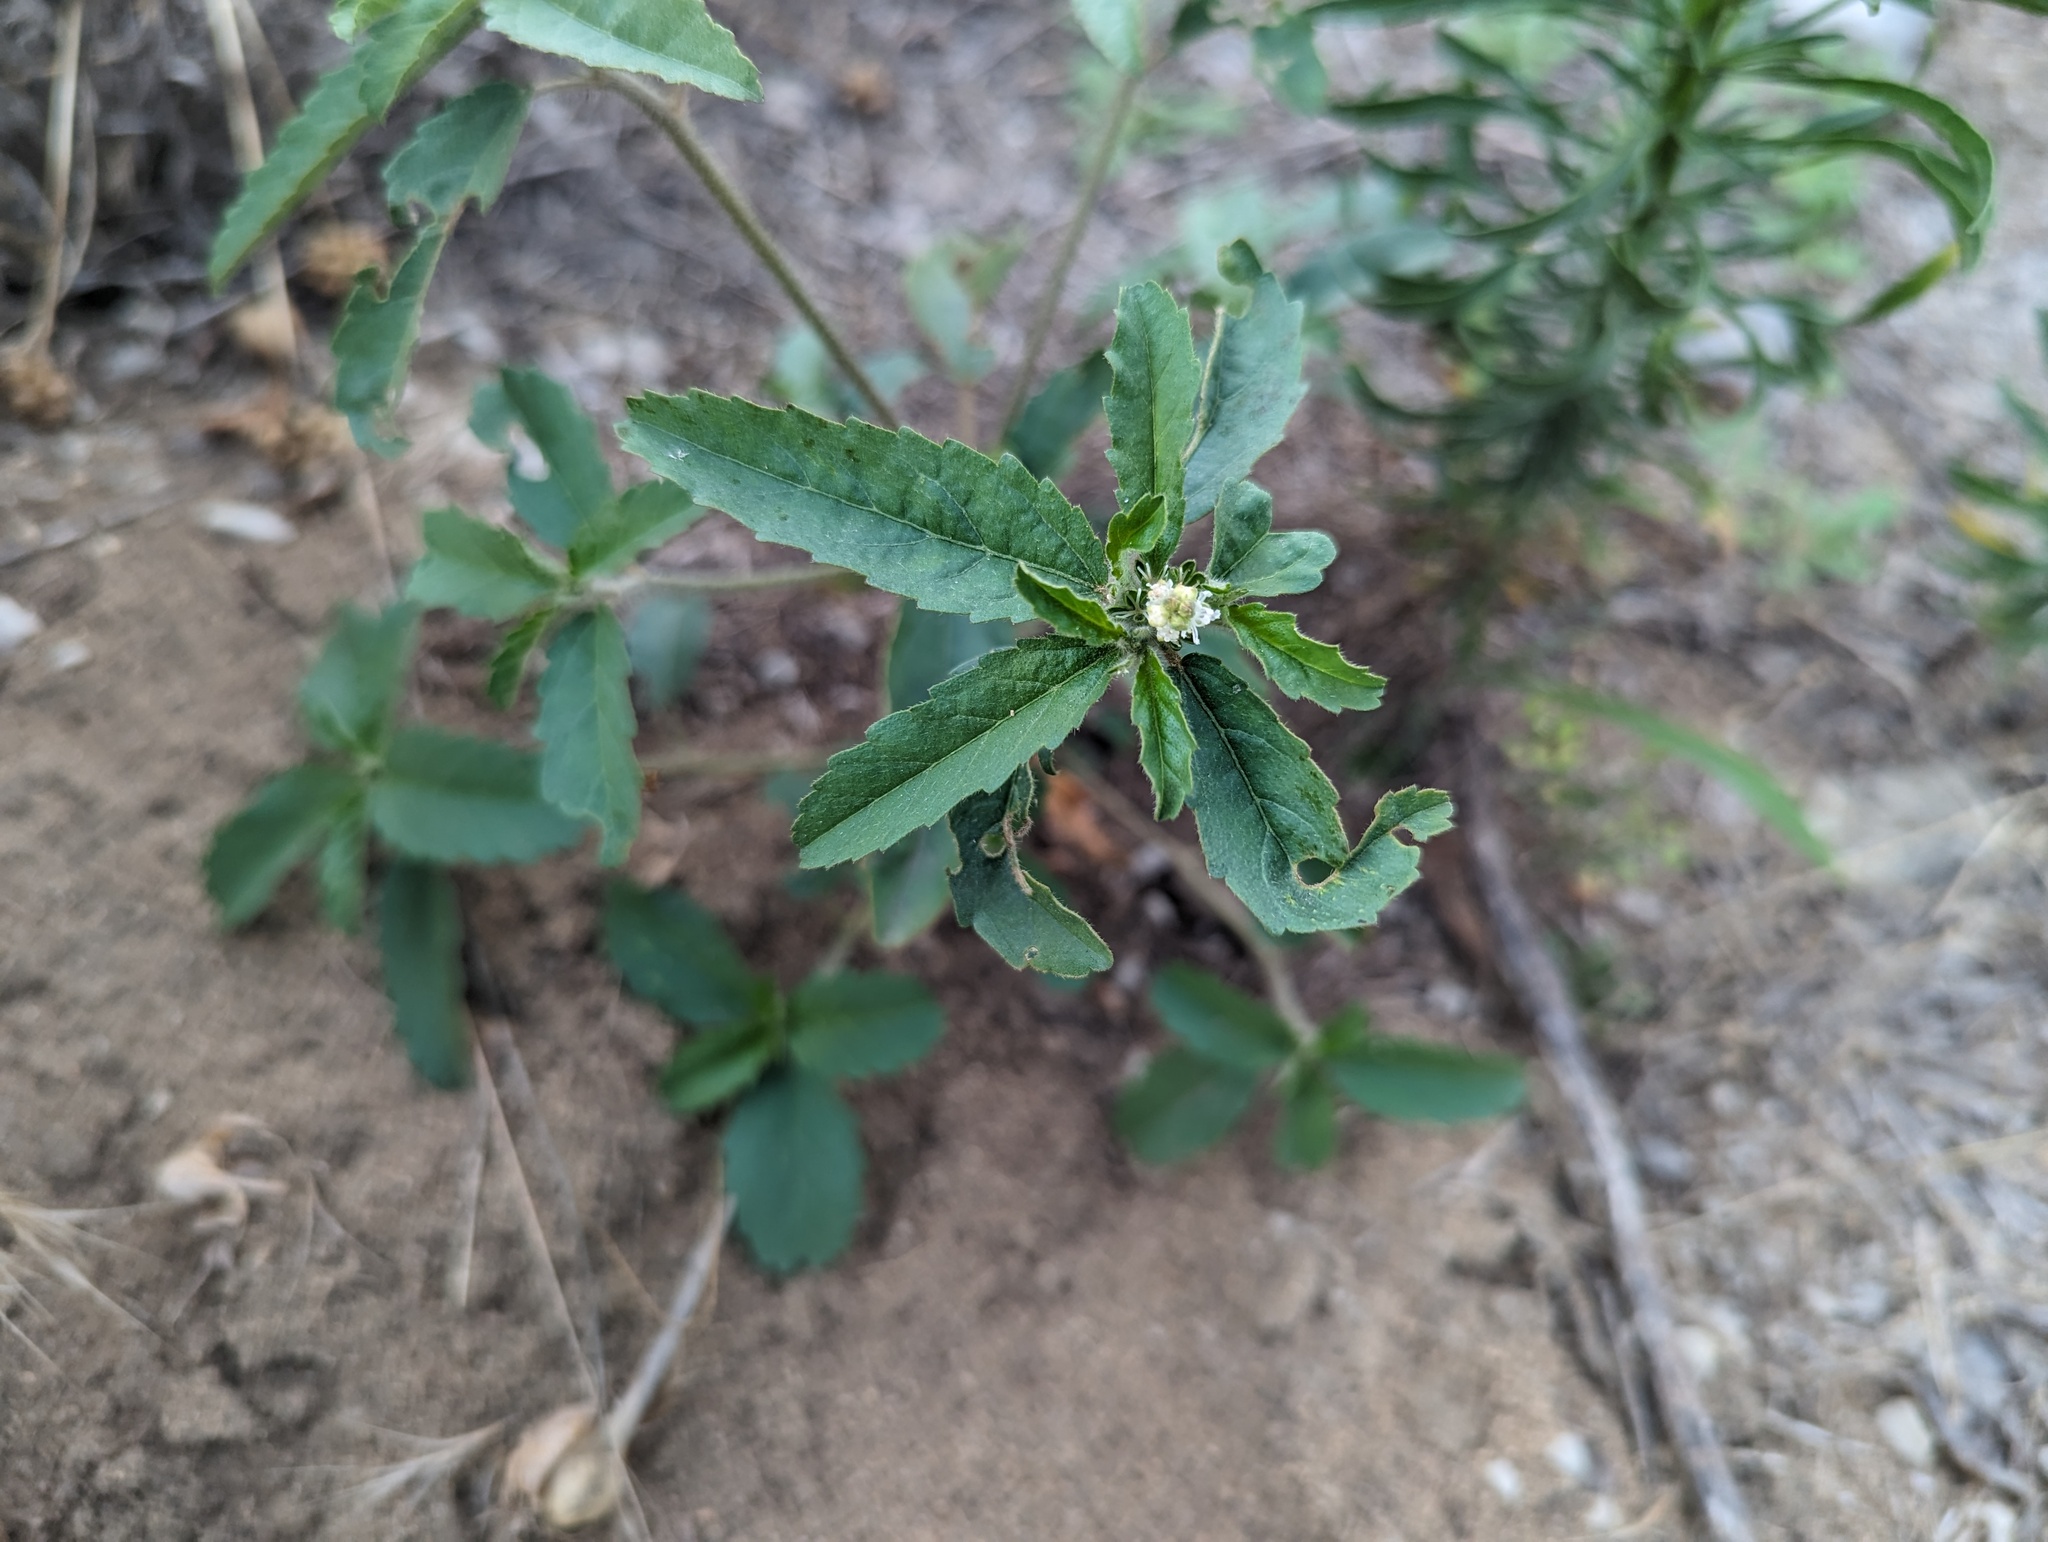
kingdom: Plantae
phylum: Tracheophyta
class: Magnoliopsida
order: Malpighiales
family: Euphorbiaceae
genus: Croton
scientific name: Croton glandulosus
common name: Tropic croton
